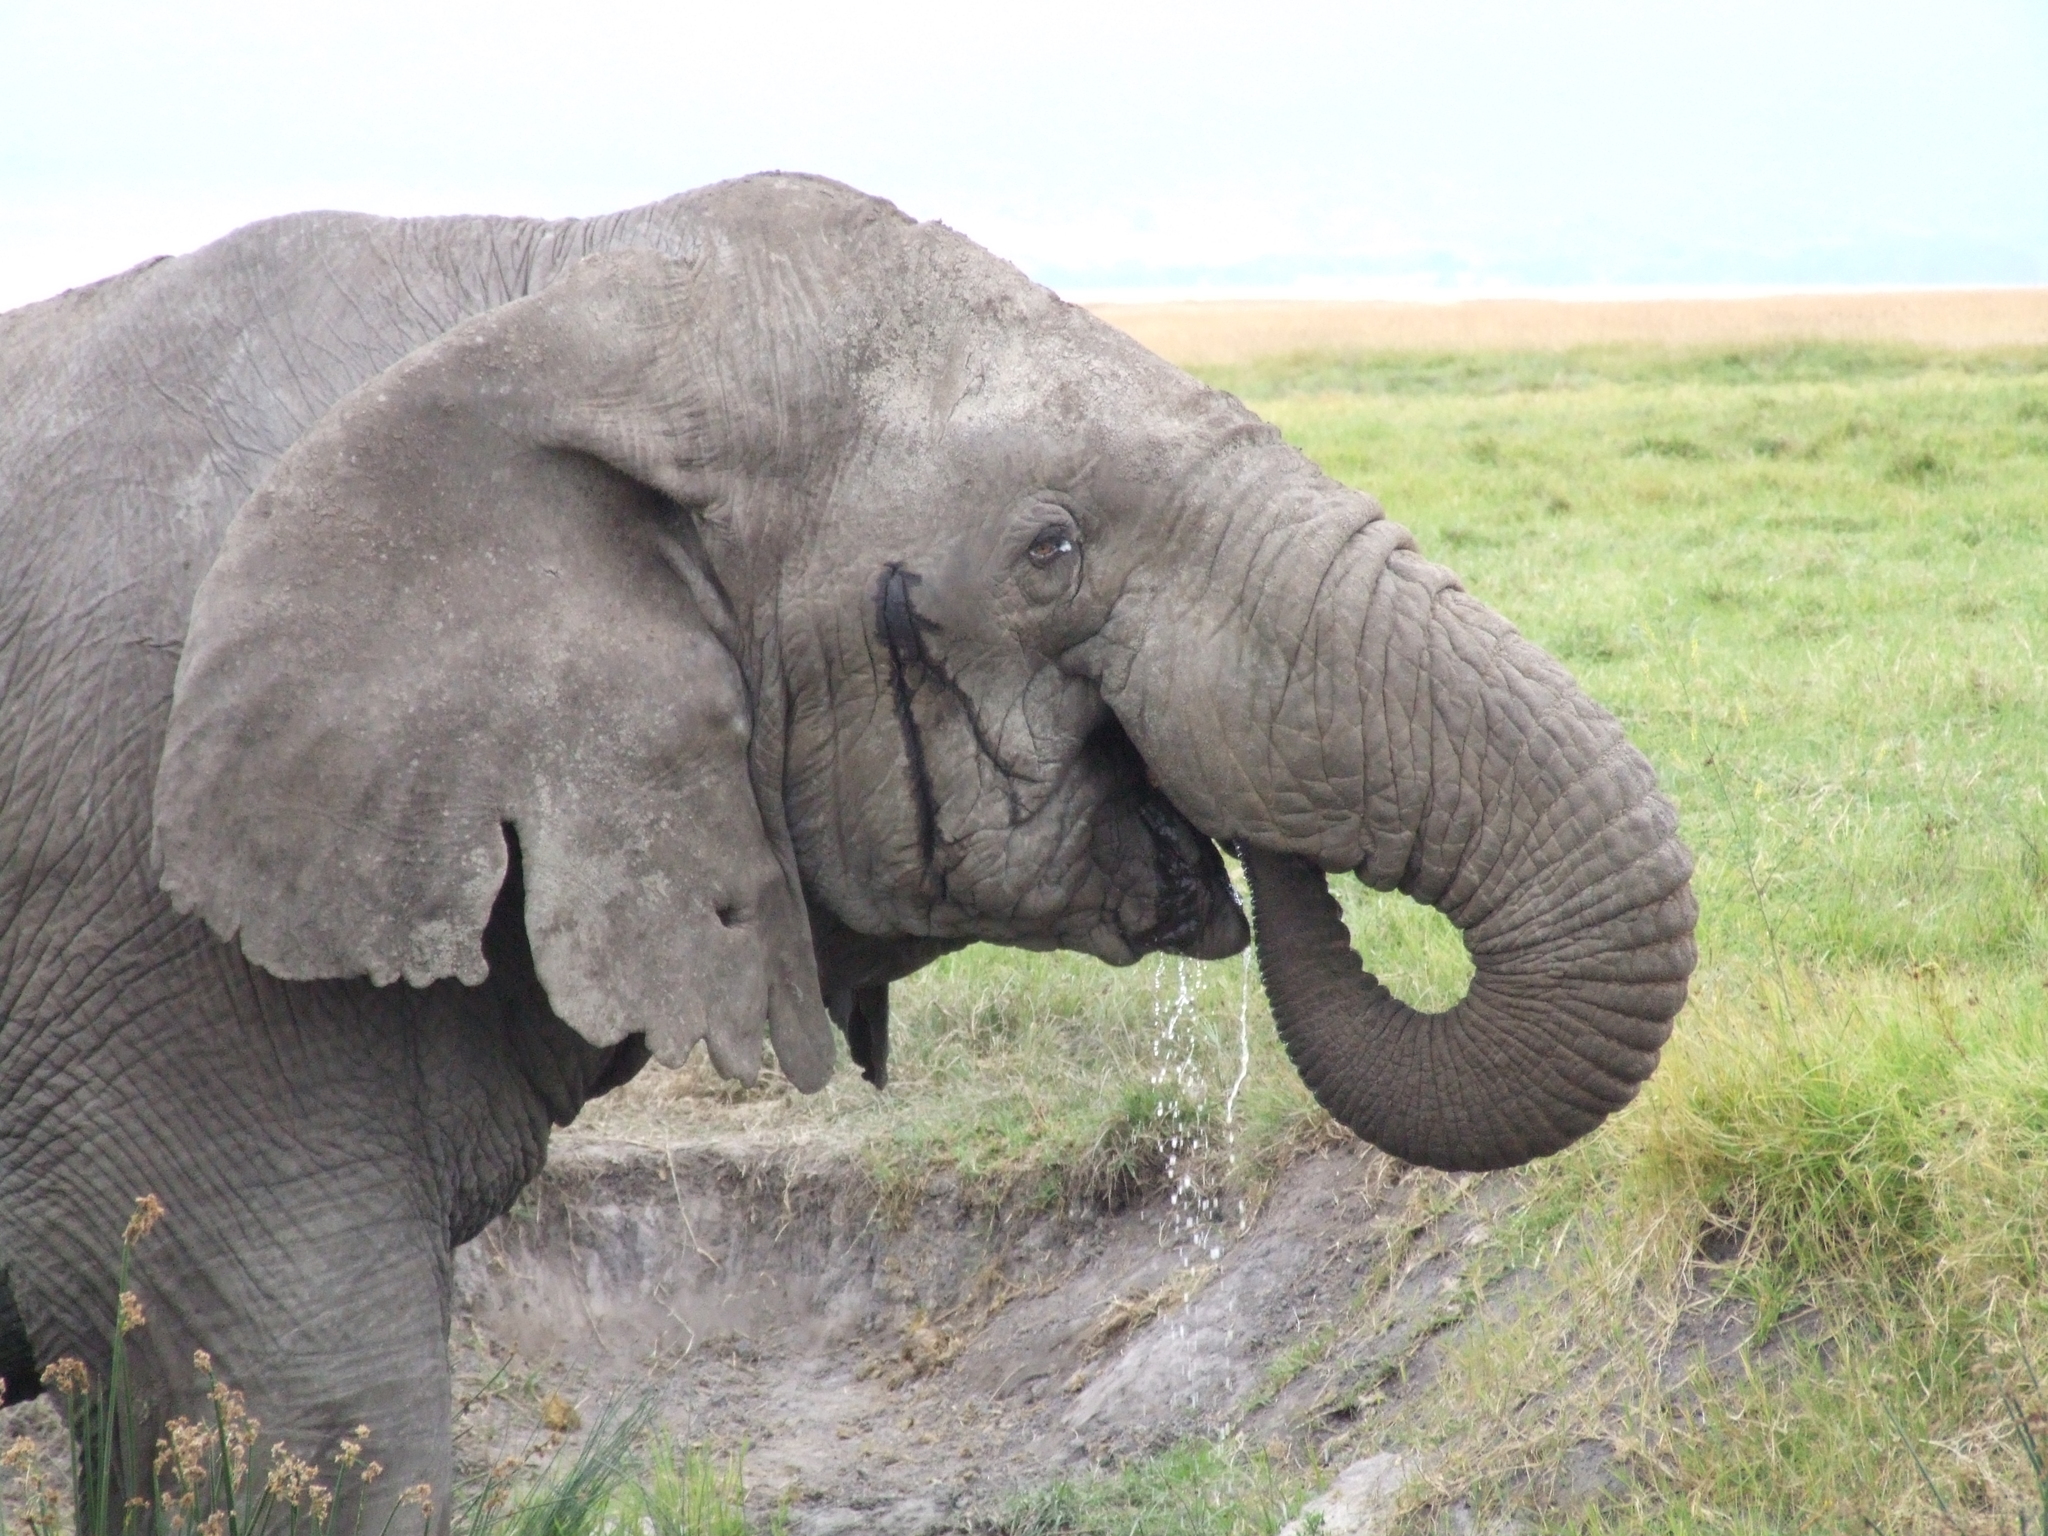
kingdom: Animalia
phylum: Chordata
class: Mammalia
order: Proboscidea
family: Elephantidae
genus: Loxodonta
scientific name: Loxodonta africana
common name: African elephant
